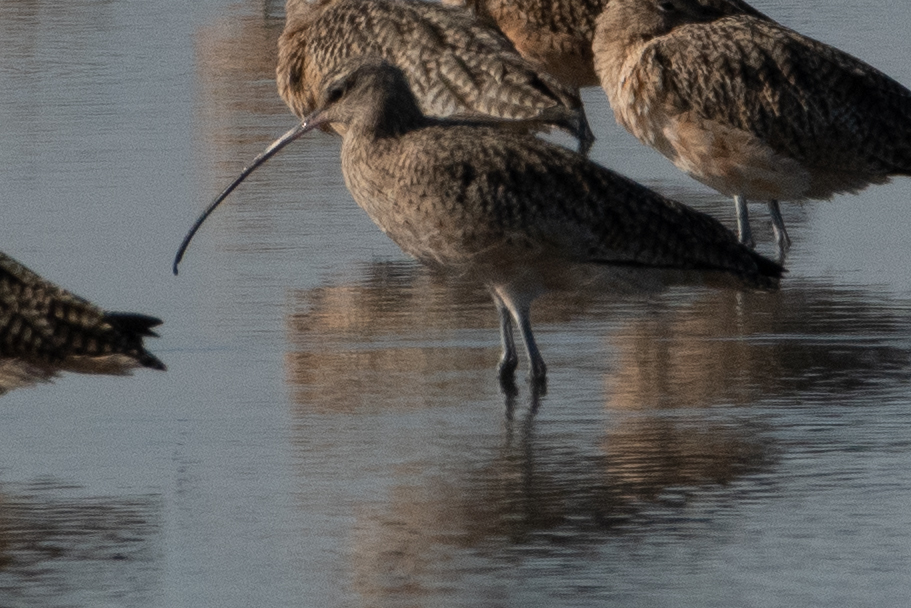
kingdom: Animalia
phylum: Chordata
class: Aves
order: Charadriiformes
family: Scolopacidae
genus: Numenius
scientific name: Numenius americanus
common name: Long-billed curlew
